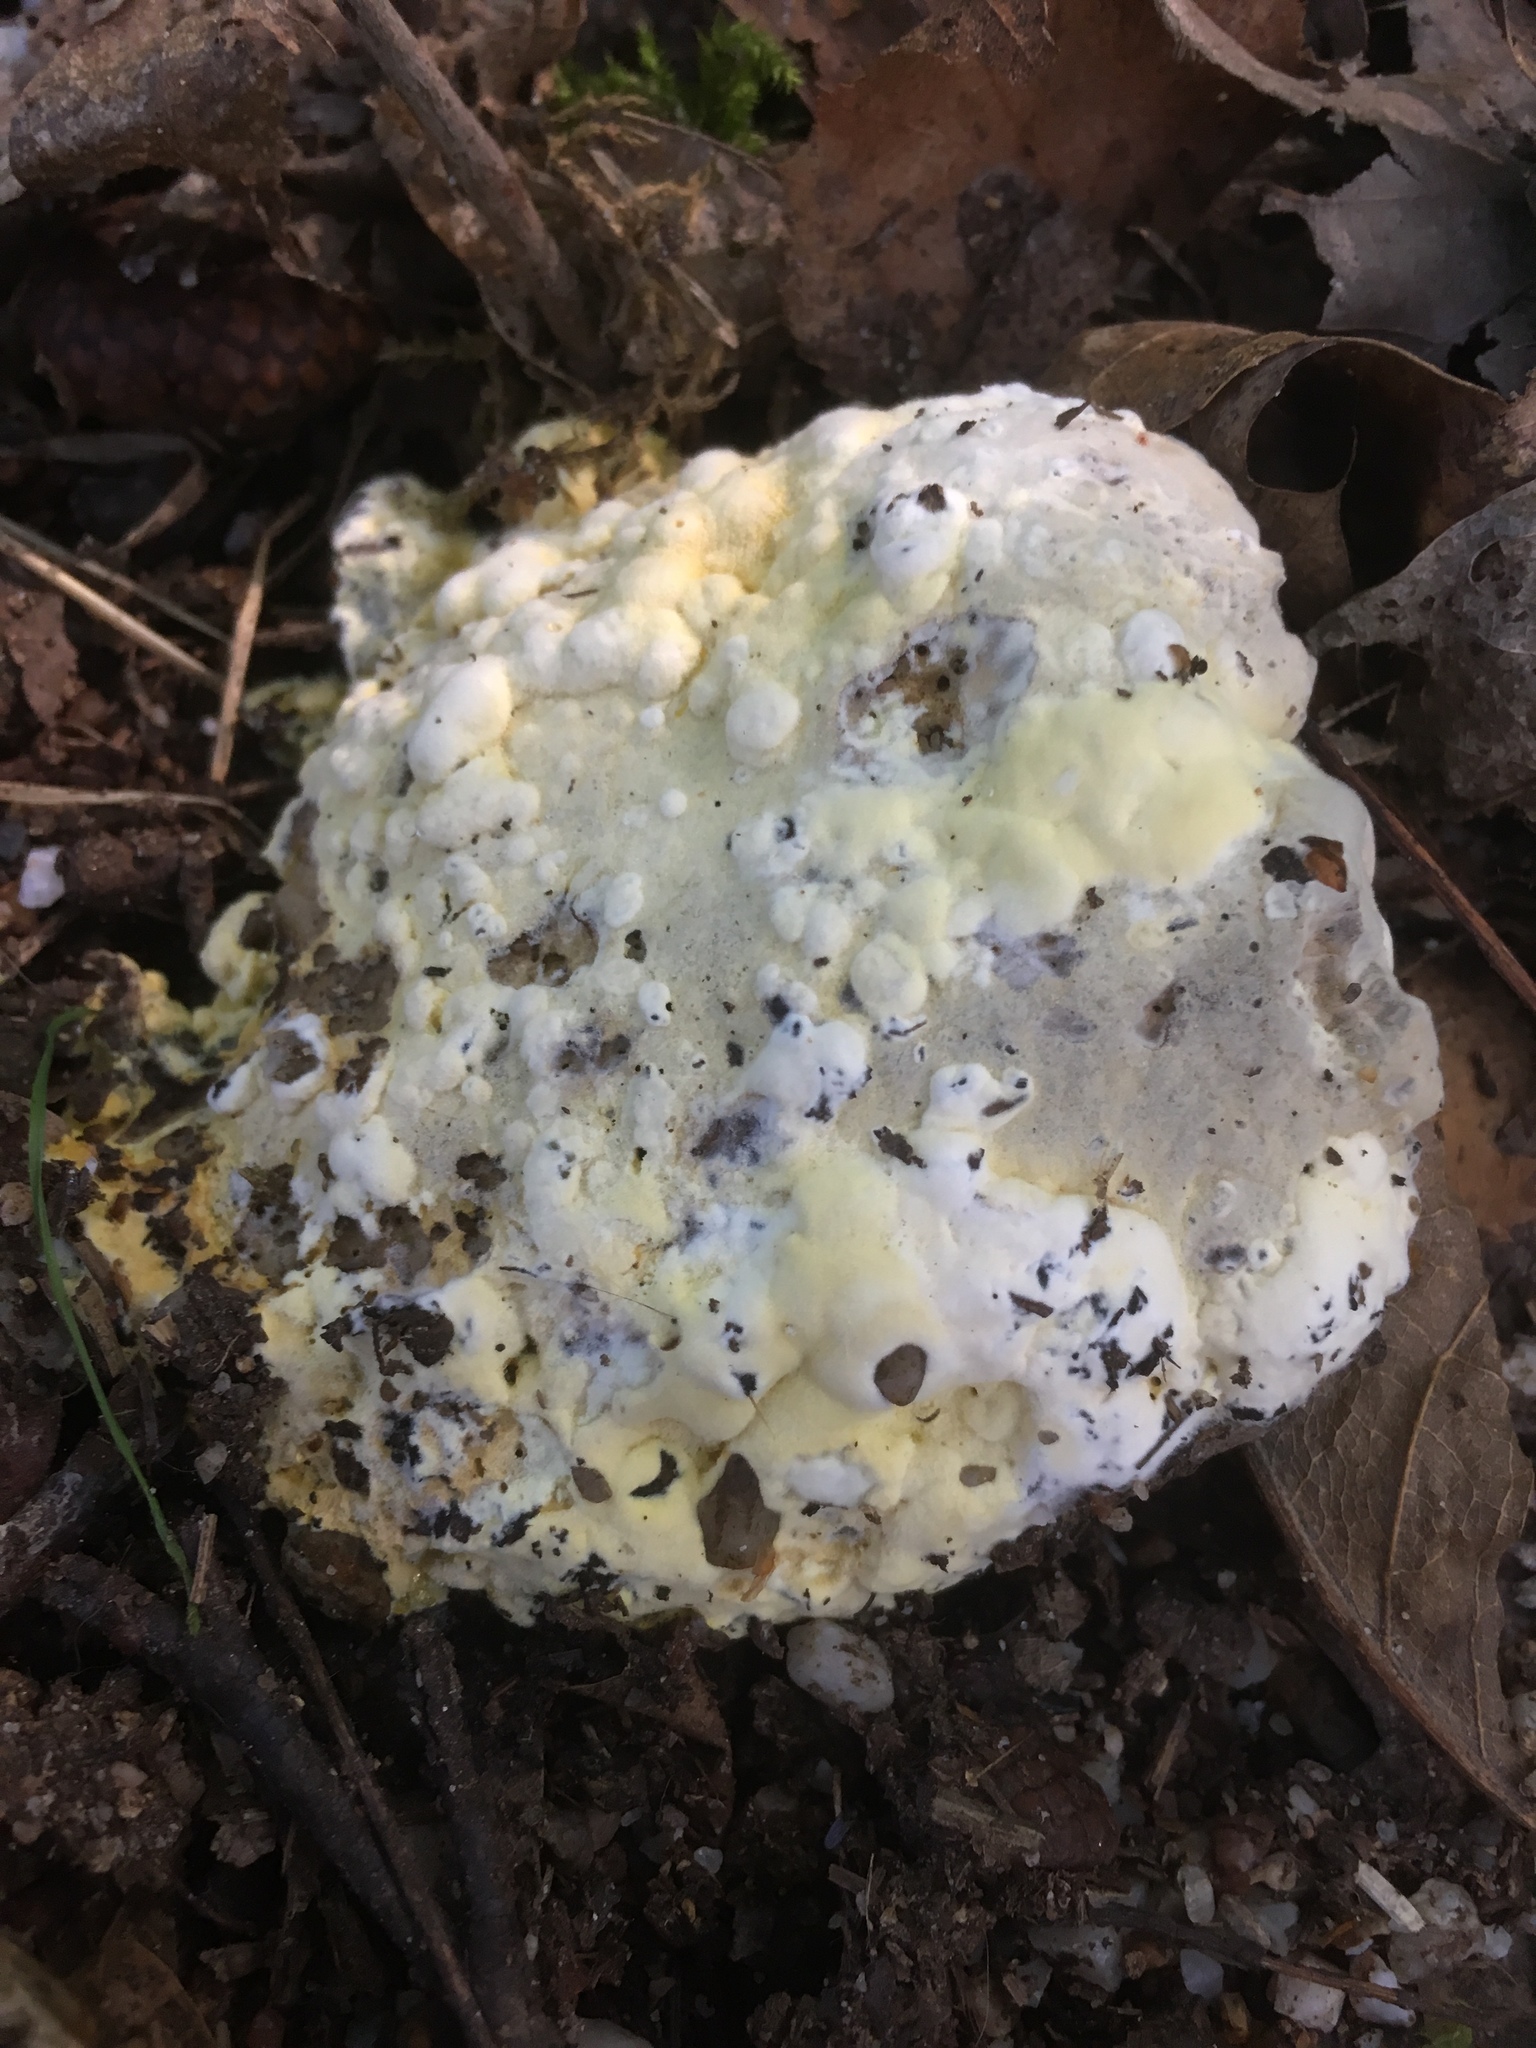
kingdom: Fungi
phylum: Basidiomycota
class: Agaricomycetes
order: Polyporales
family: Laetiporaceae
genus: Laetiporus
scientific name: Laetiporus sulphureus
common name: Chicken of the woods
